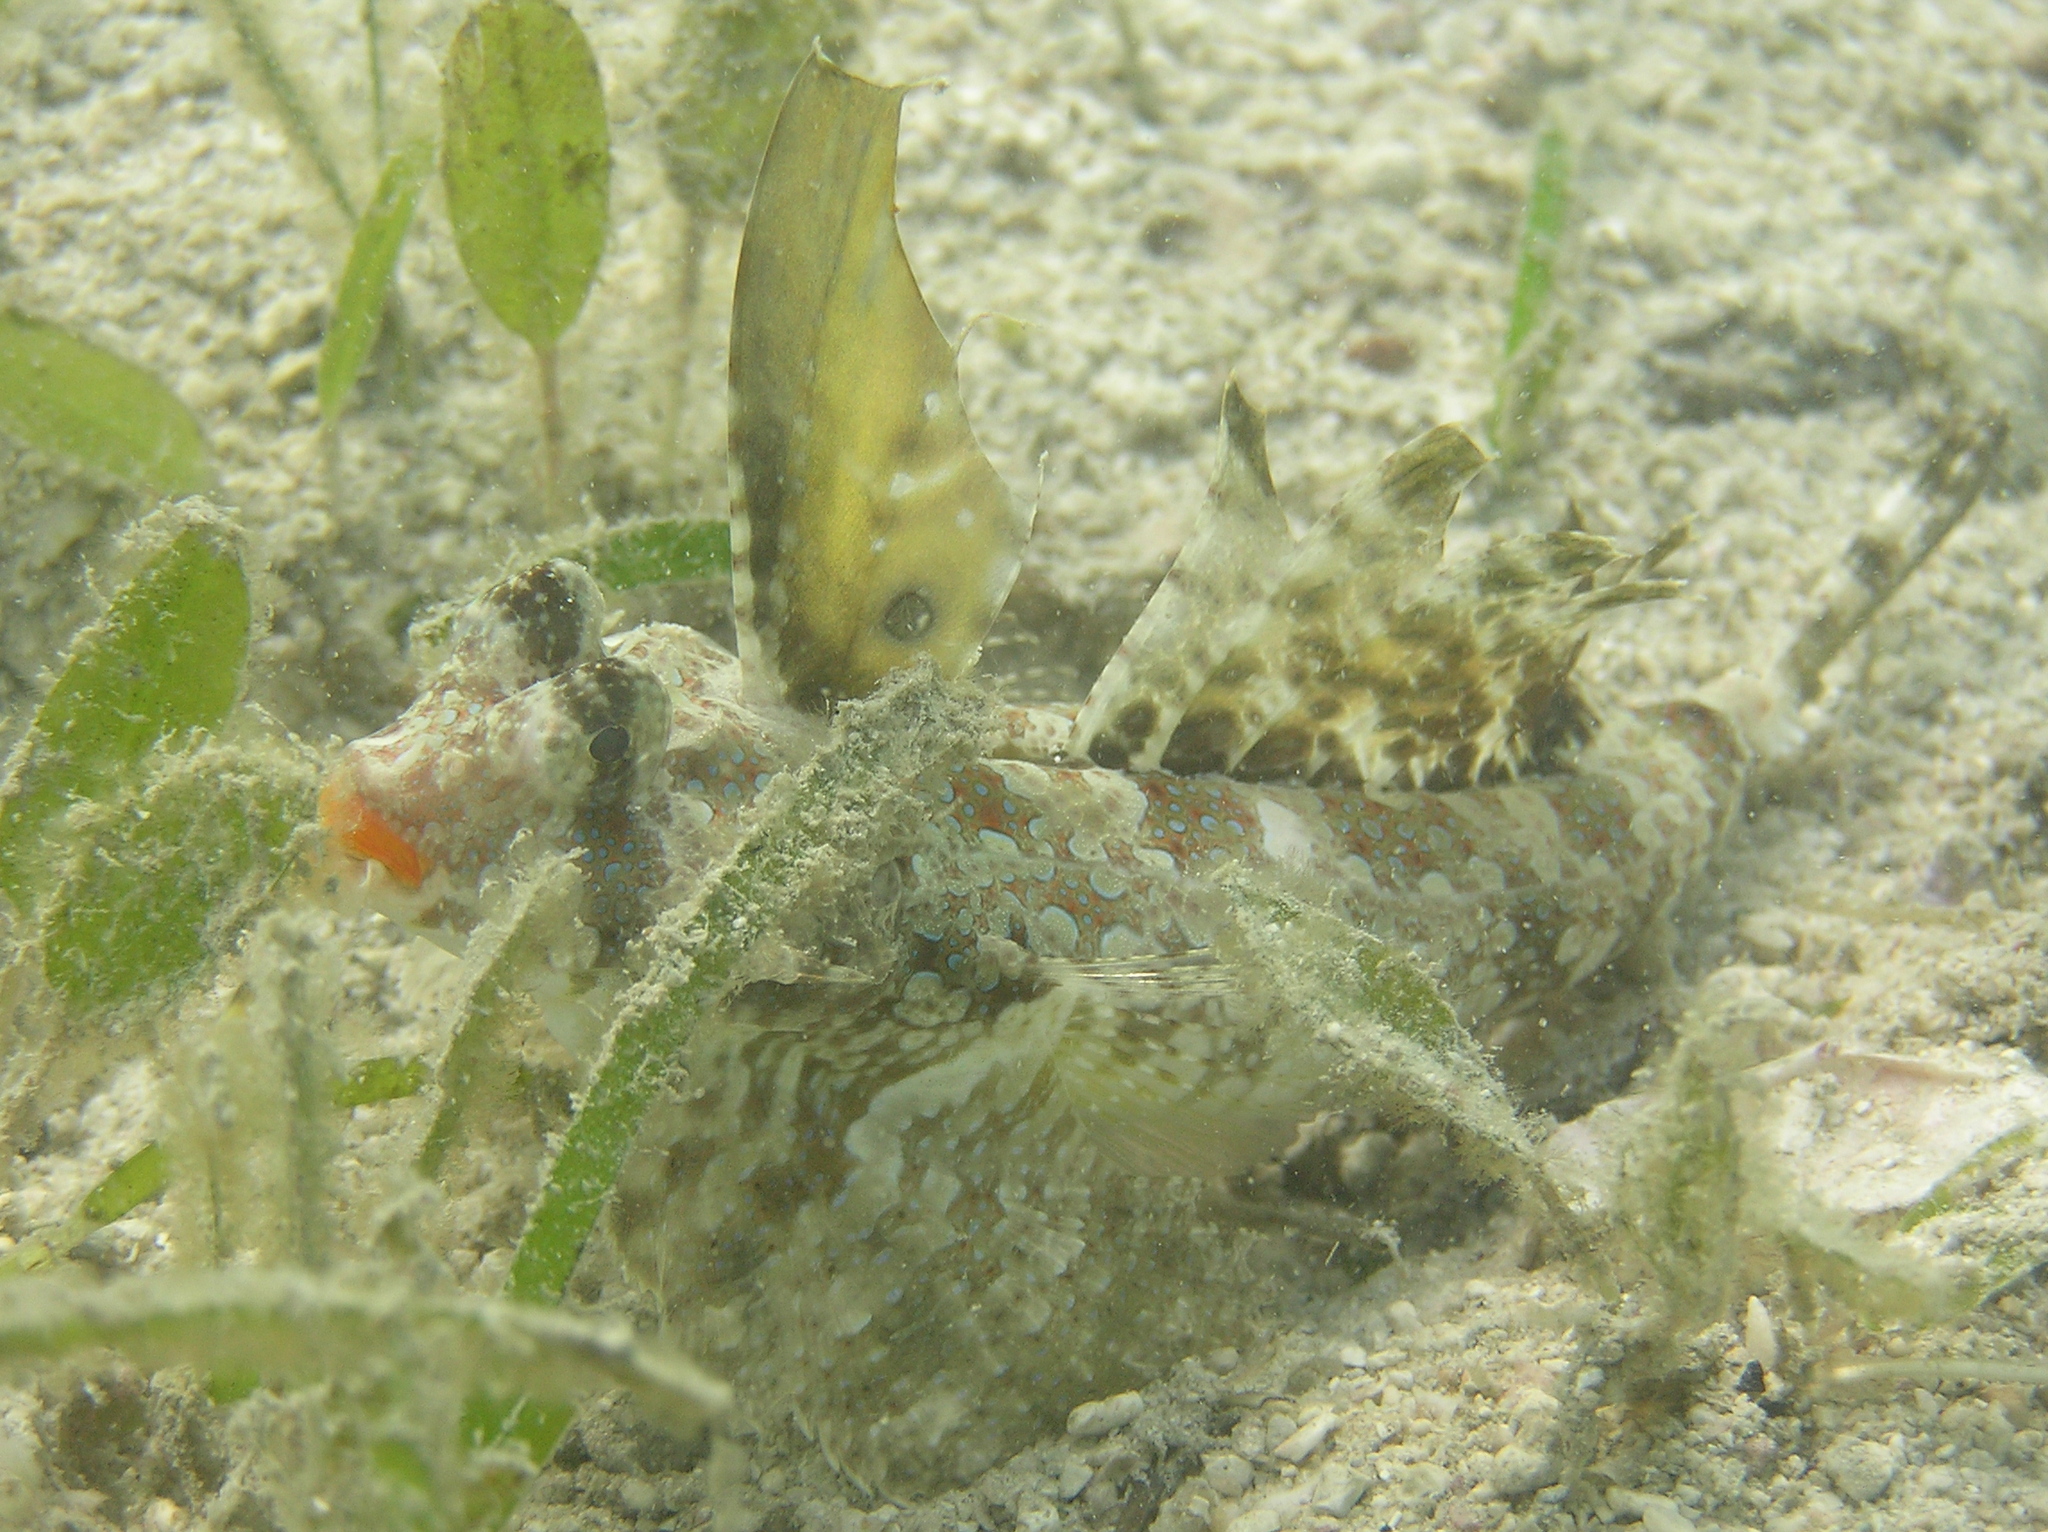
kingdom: Animalia
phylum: Chordata
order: Perciformes
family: Callionymidae
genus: Dactylopus
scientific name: Dactylopus kuiteri
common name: Kuiter's dragonet
